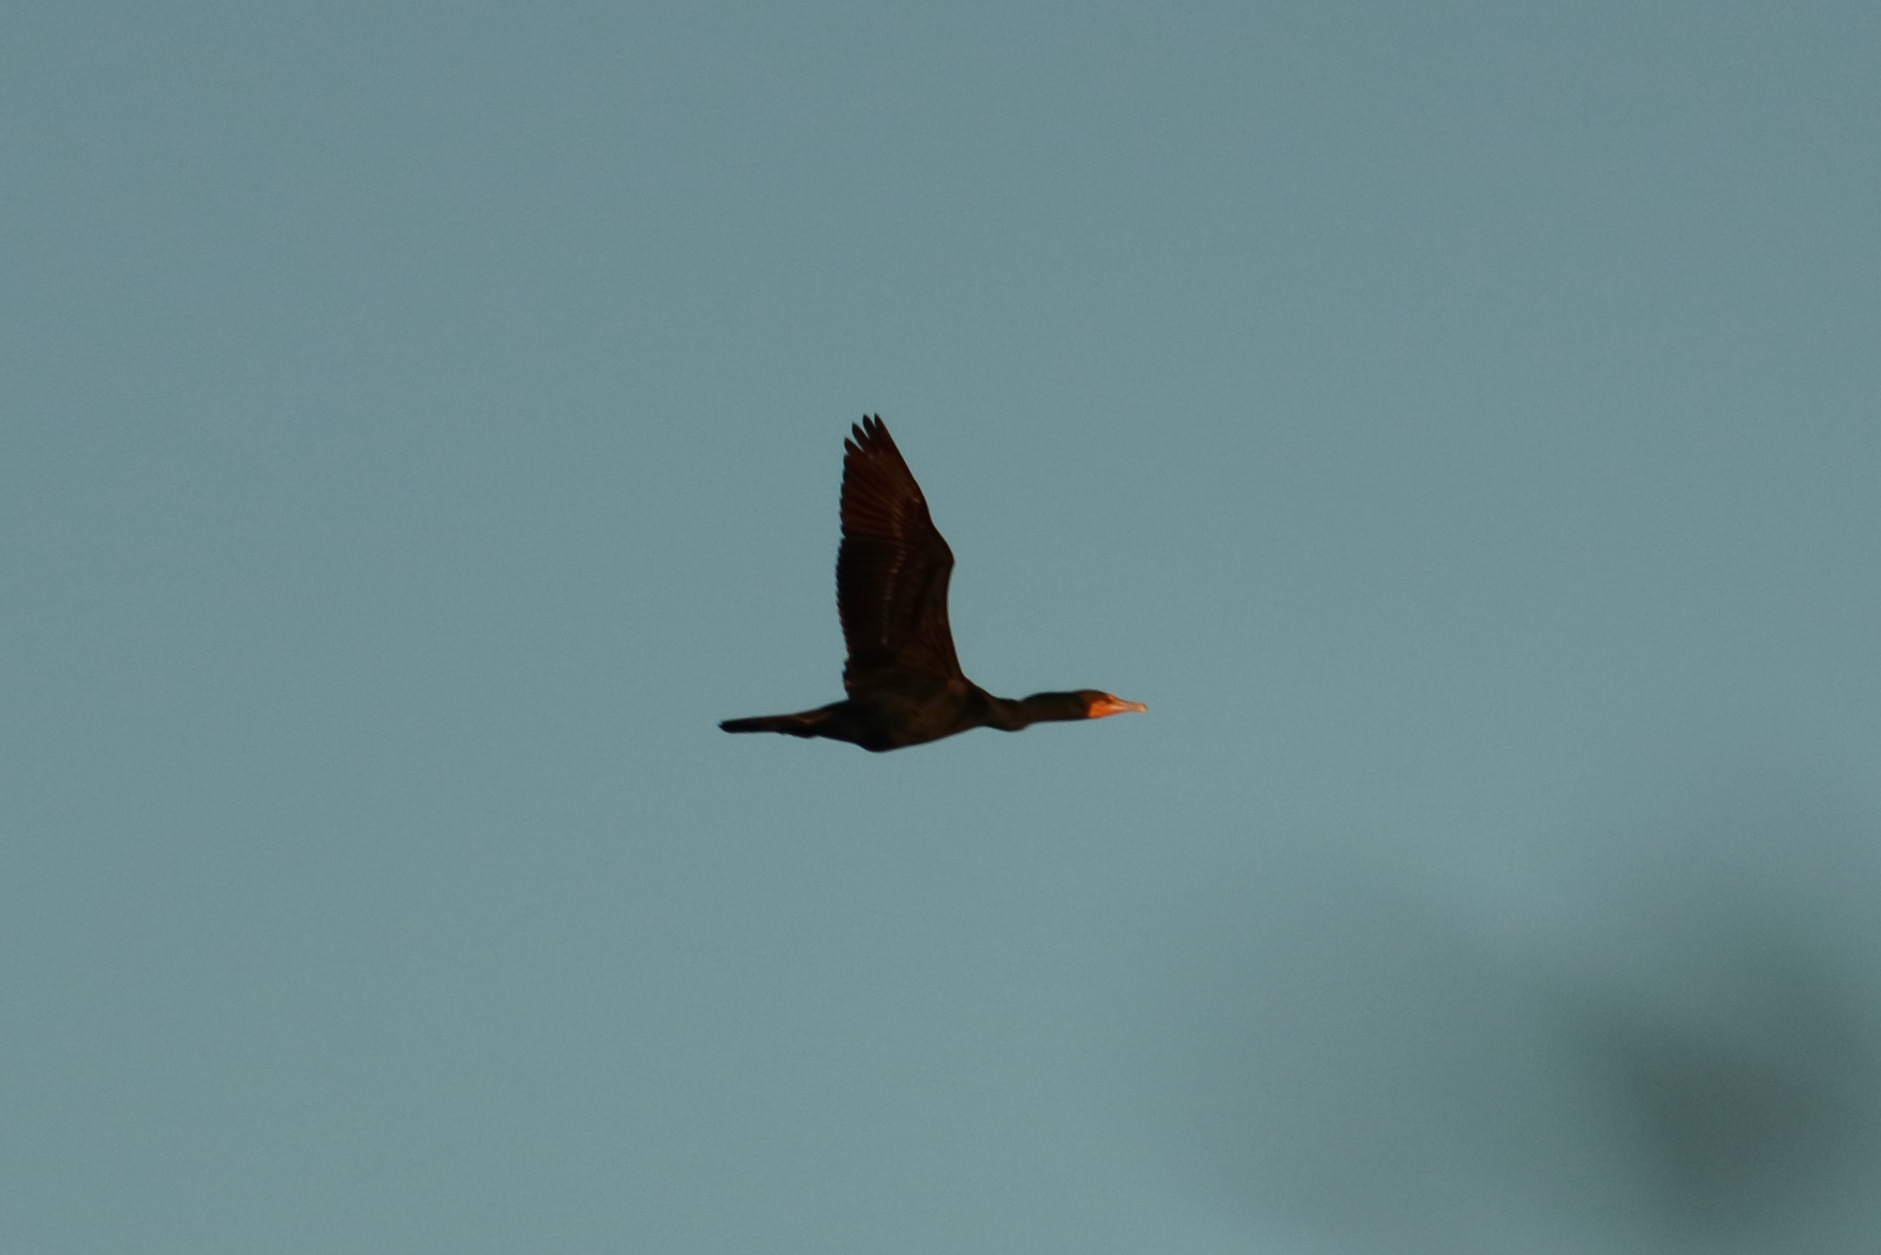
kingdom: Animalia
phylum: Chordata
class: Aves
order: Suliformes
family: Phalacrocoracidae
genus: Phalacrocorax
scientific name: Phalacrocorax auritus
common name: Double-crested cormorant
